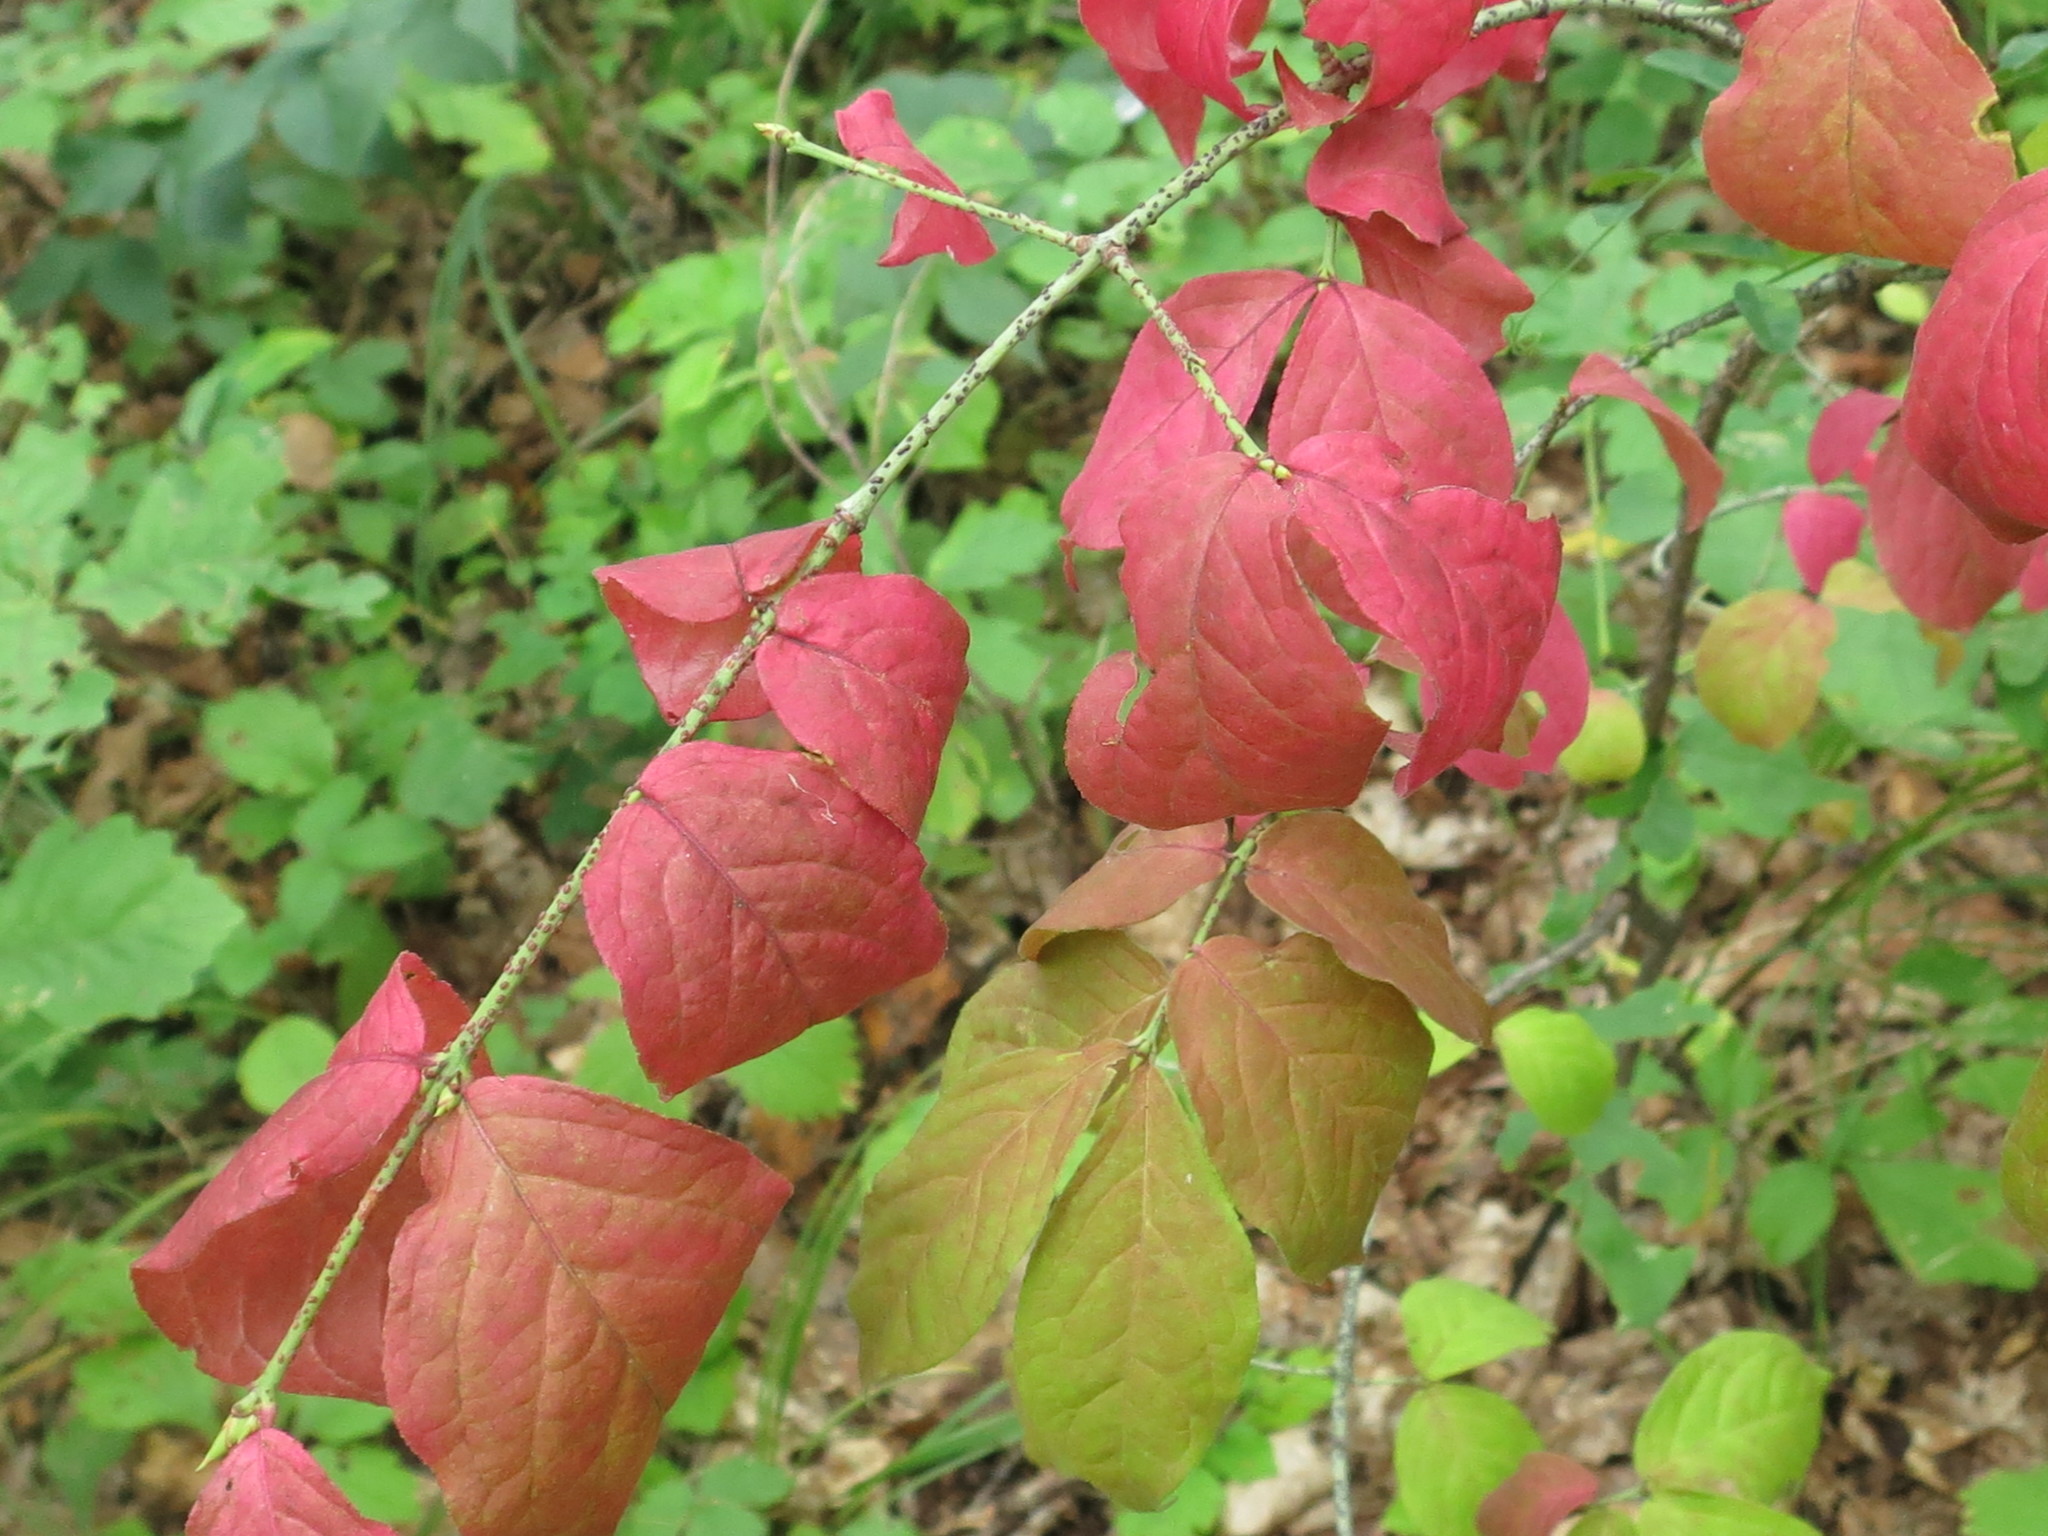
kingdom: Plantae
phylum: Tracheophyta
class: Magnoliopsida
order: Celastrales
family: Celastraceae
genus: Euonymus
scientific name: Euonymus verrucosus
